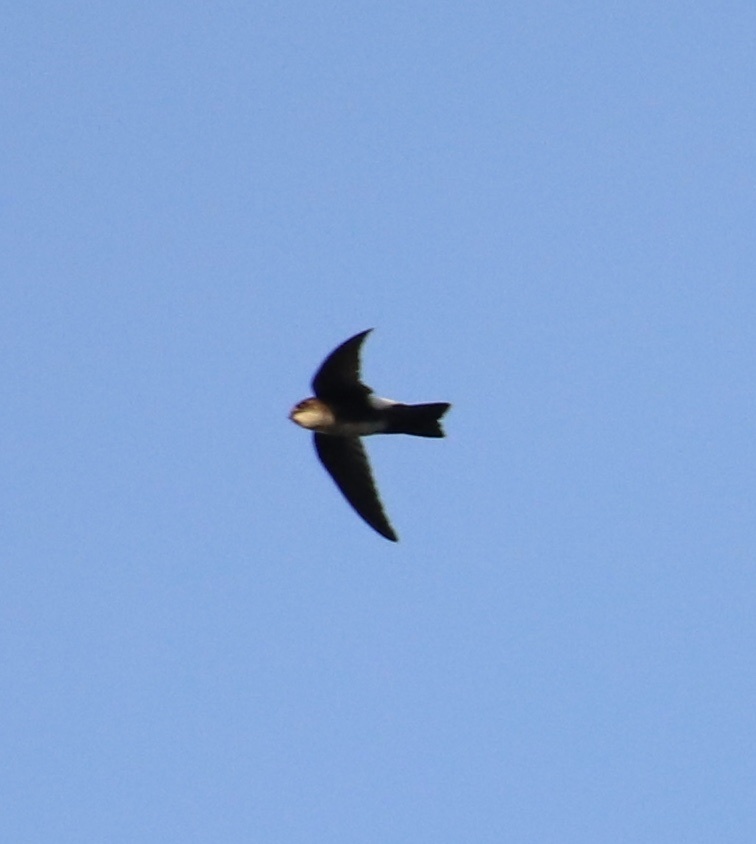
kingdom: Animalia
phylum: Chordata
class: Aves
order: Apodiformes
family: Apodidae
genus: Tachornis
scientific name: Tachornis phoenicobia
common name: Antillean palm swift
